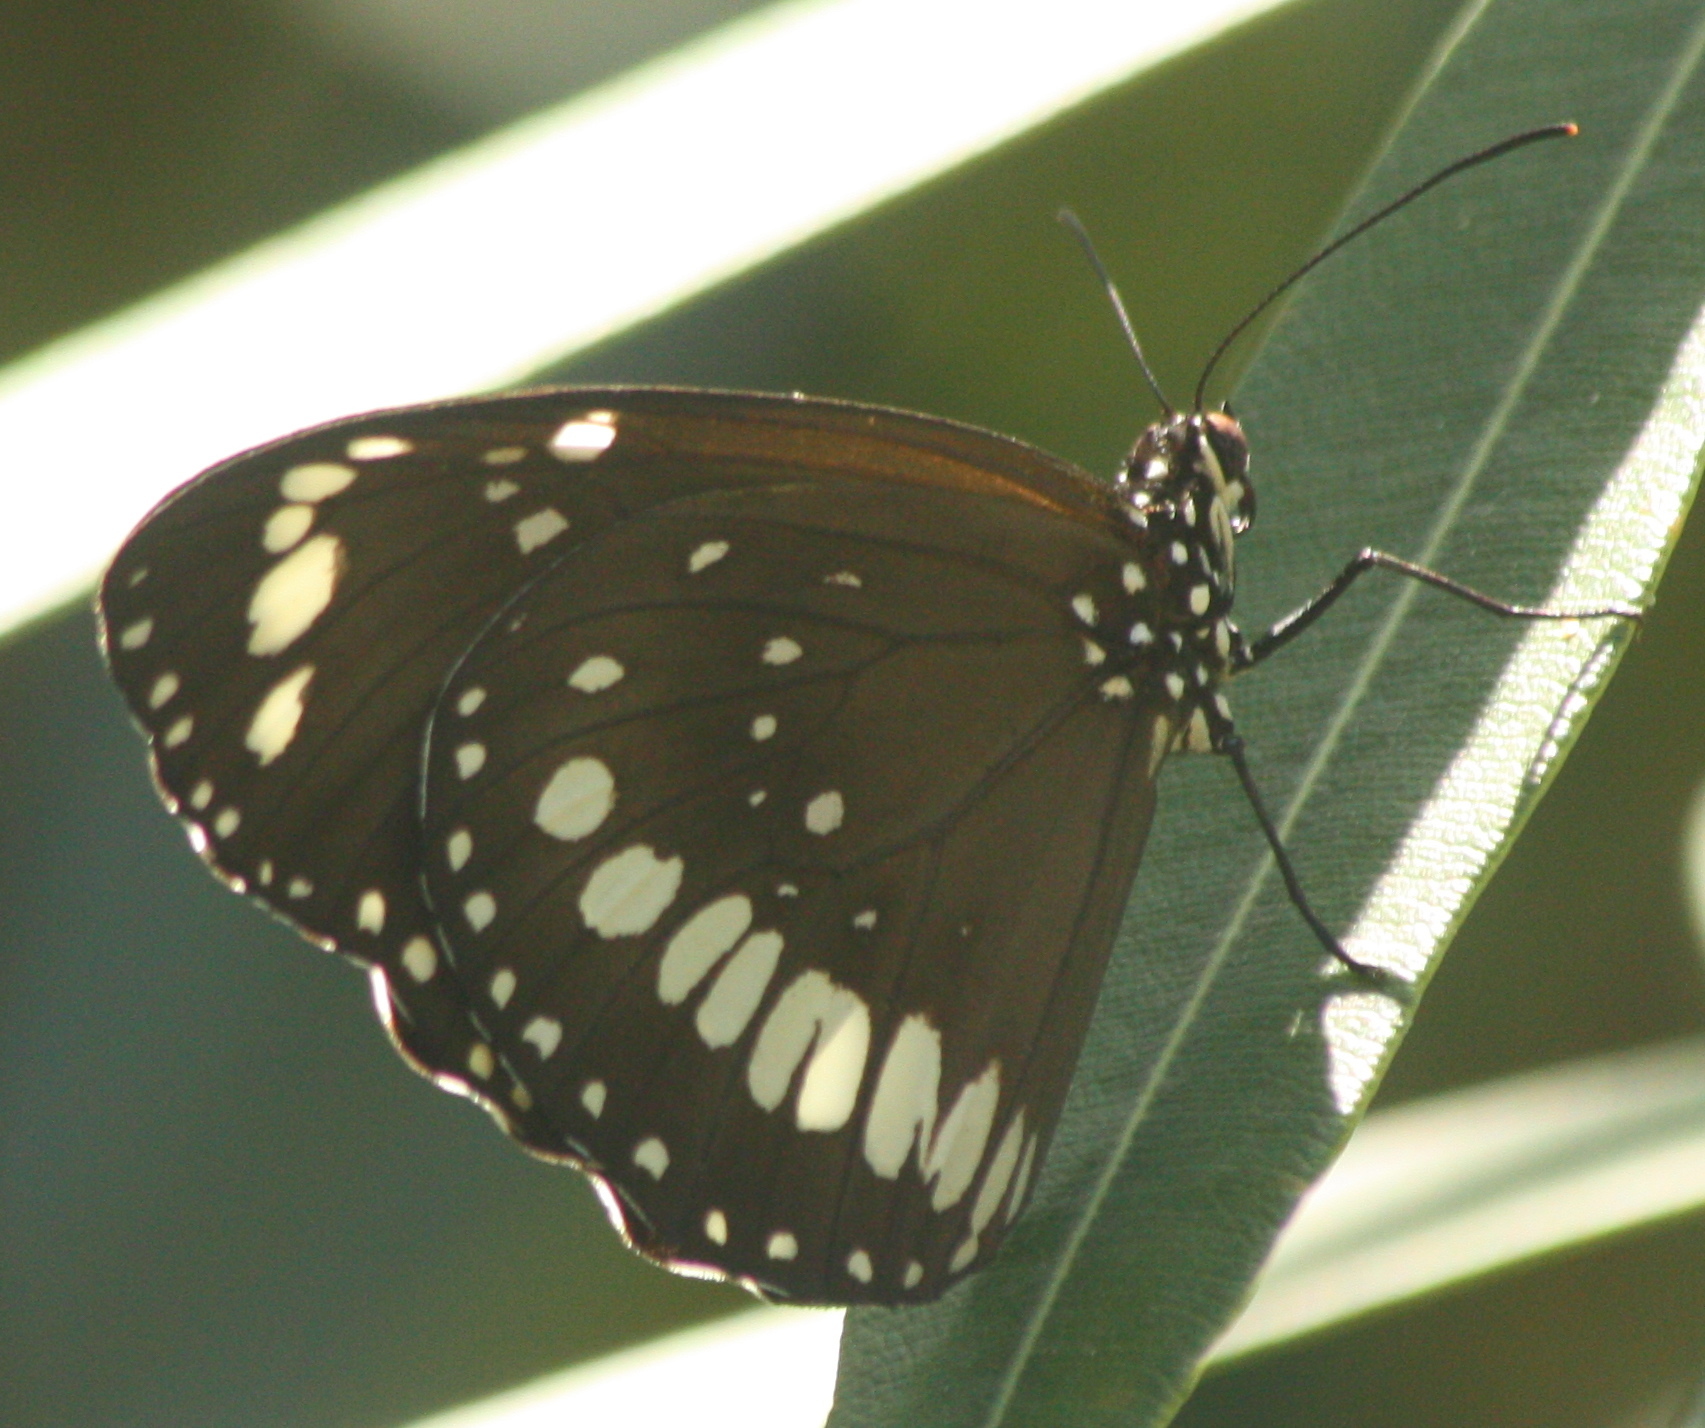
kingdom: Animalia
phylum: Arthropoda
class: Insecta
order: Lepidoptera
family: Nymphalidae
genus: Euploea
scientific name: Euploea core
